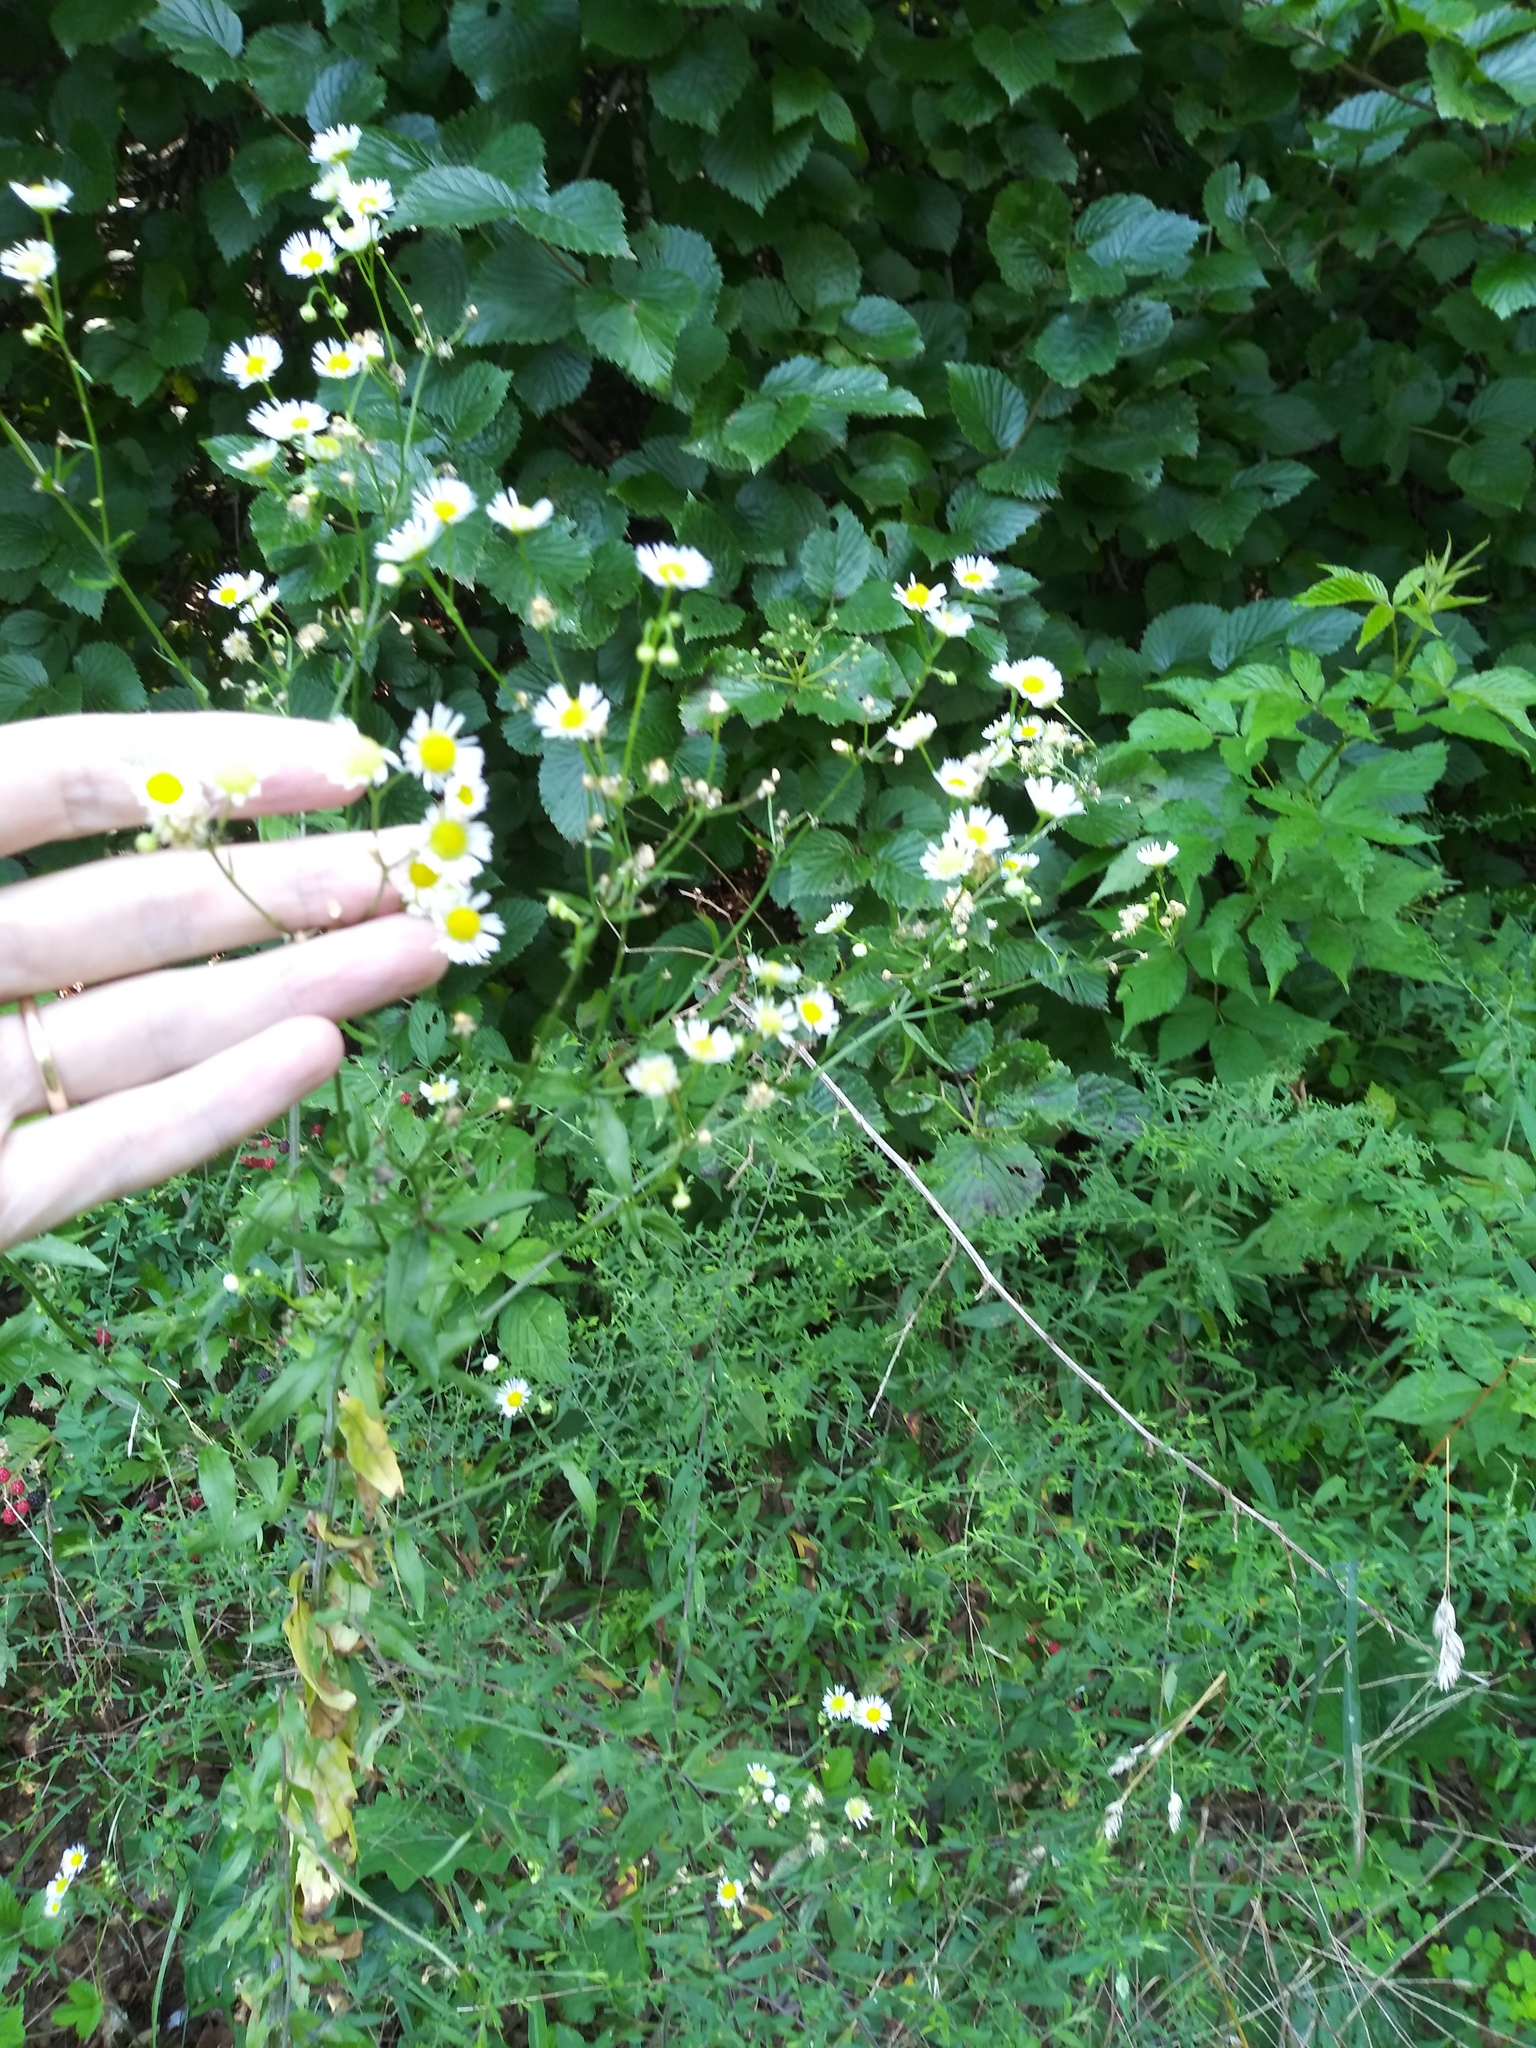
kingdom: Plantae
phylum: Tracheophyta
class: Magnoliopsida
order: Asterales
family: Asteraceae
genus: Erigeron
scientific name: Erigeron annuus
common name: Tall fleabane
